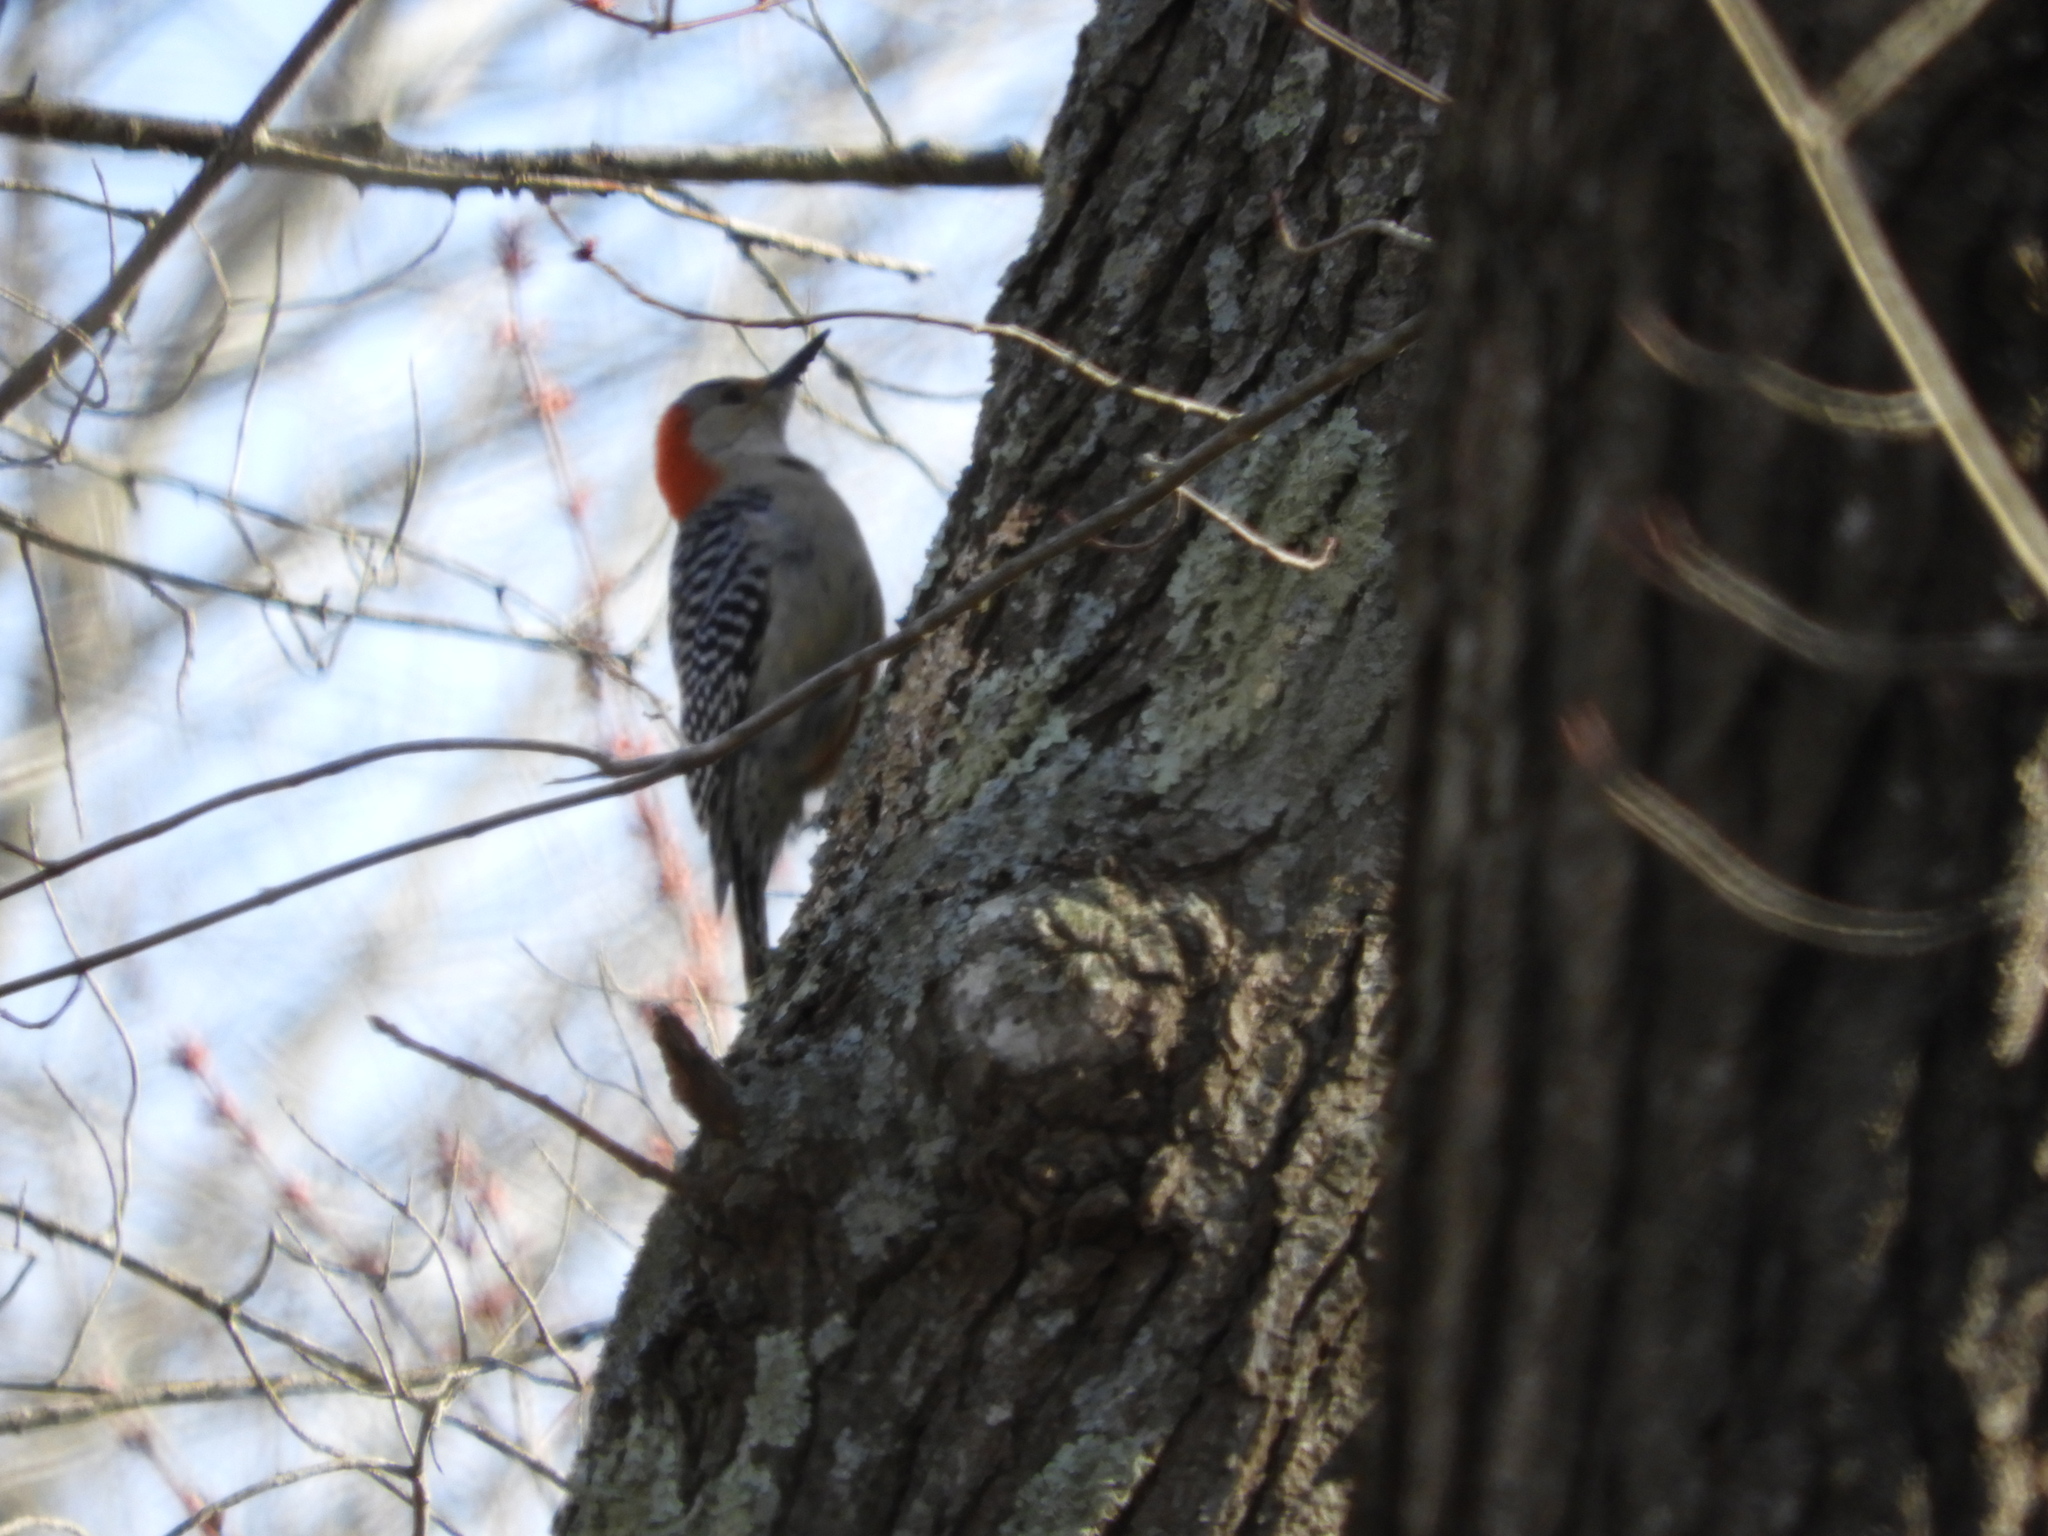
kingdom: Animalia
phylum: Chordata
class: Aves
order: Piciformes
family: Picidae
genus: Melanerpes
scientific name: Melanerpes carolinus
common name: Red-bellied woodpecker
